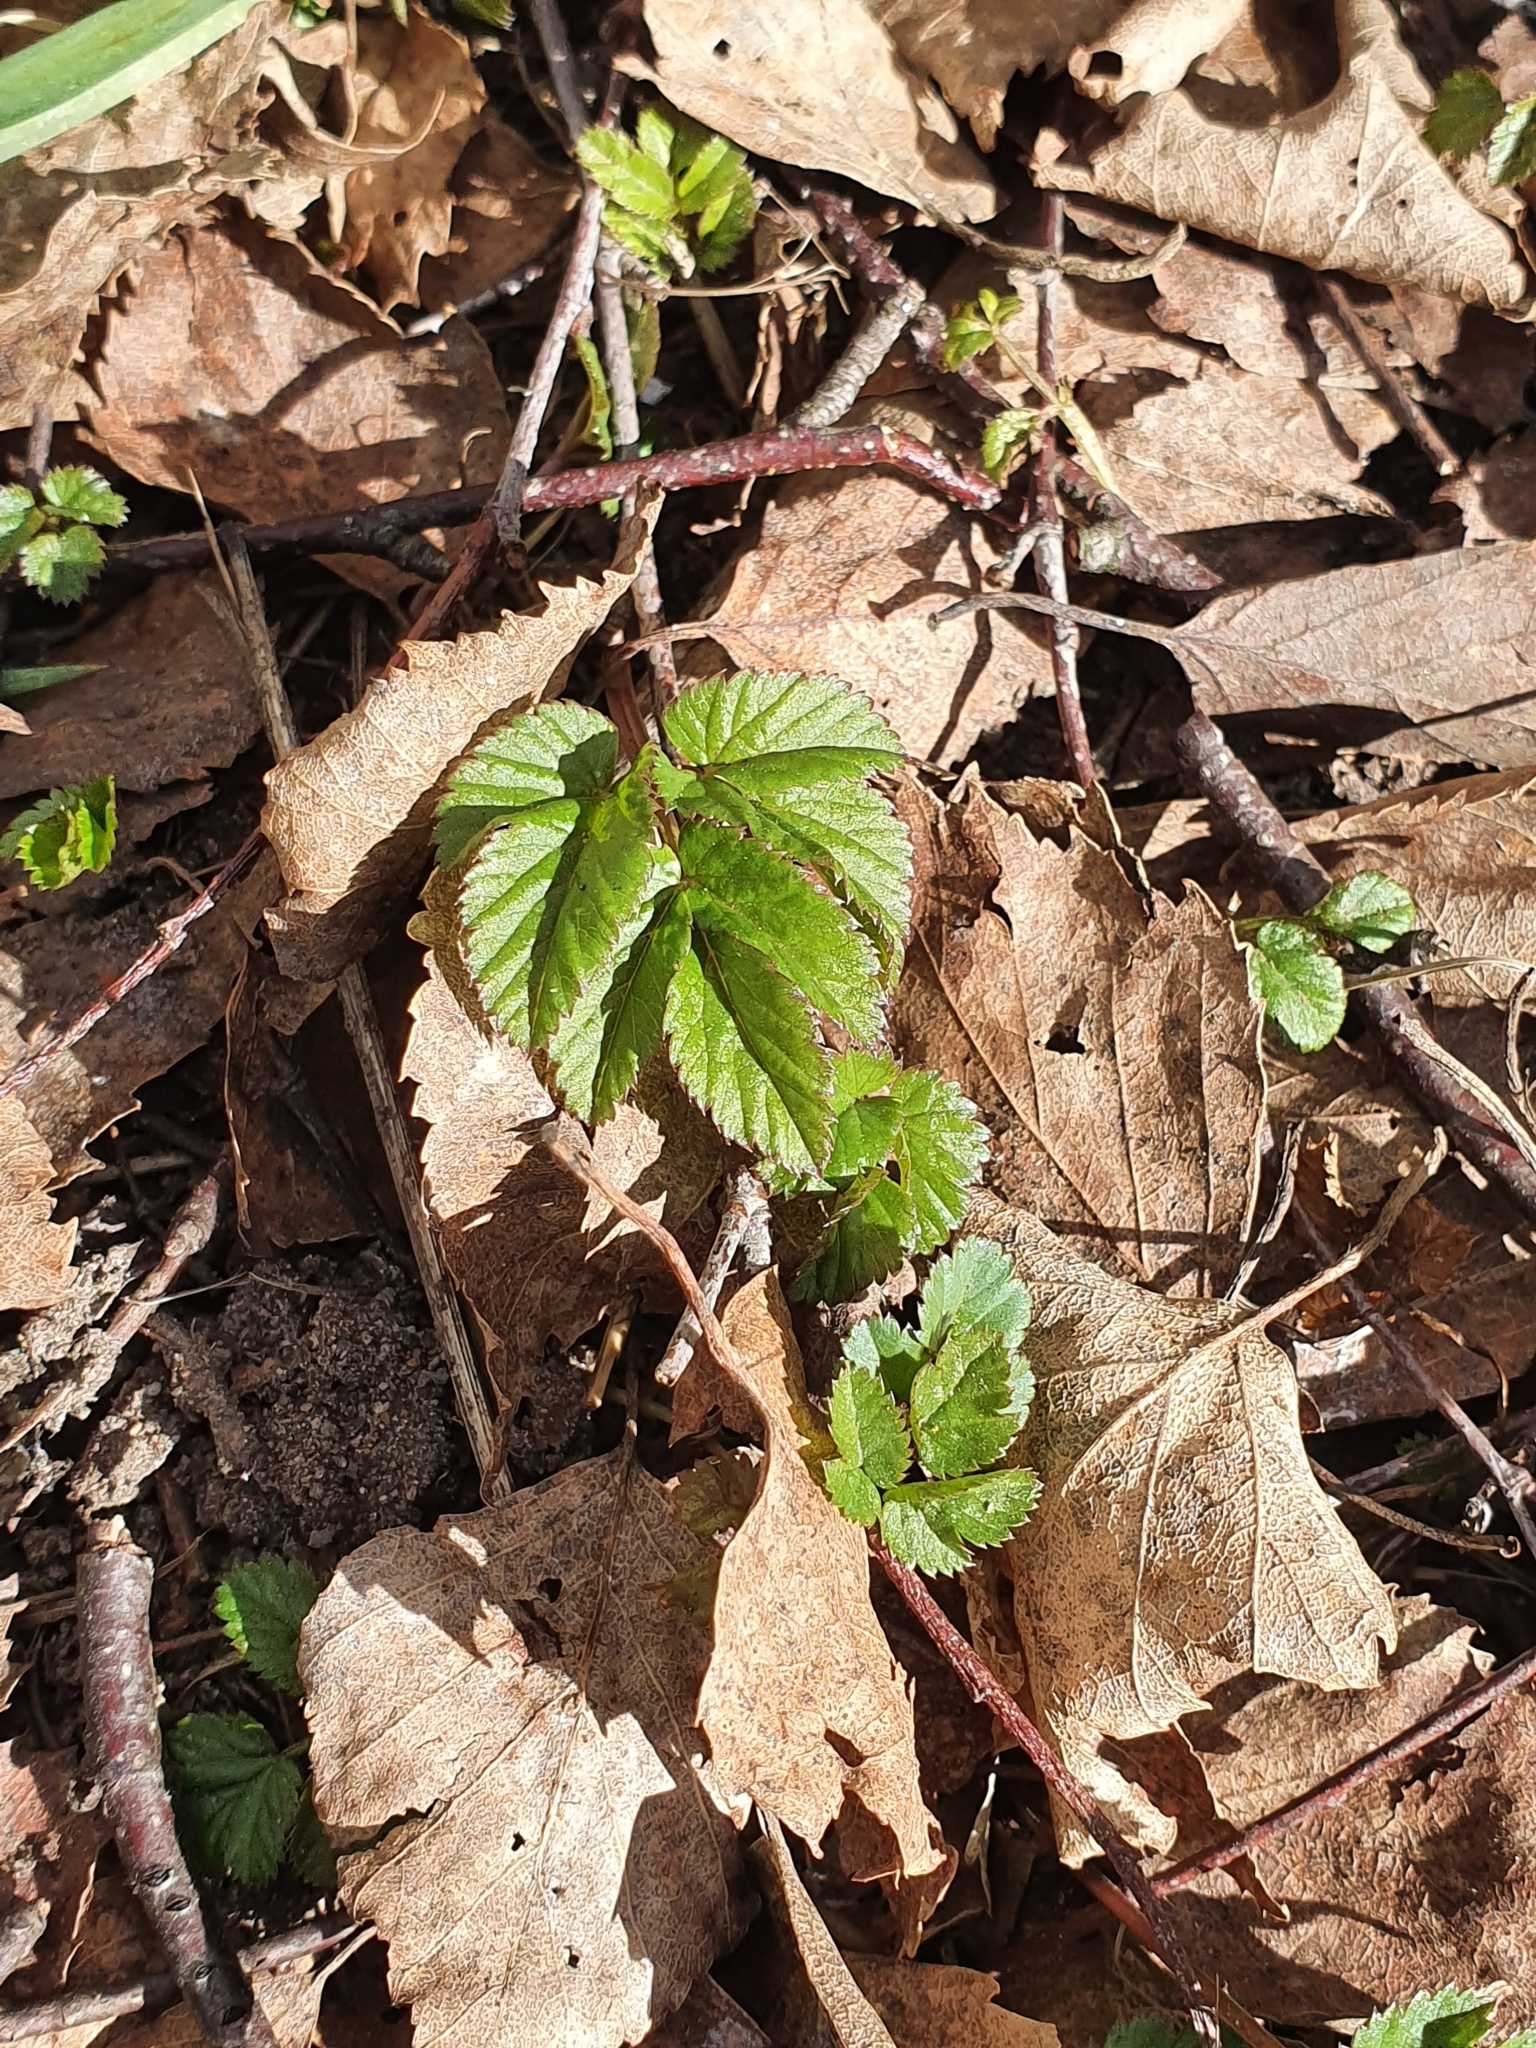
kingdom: Plantae
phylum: Tracheophyta
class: Magnoliopsida
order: Apiales
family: Apiaceae
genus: Aegopodium
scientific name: Aegopodium podagraria
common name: Ground-elder
